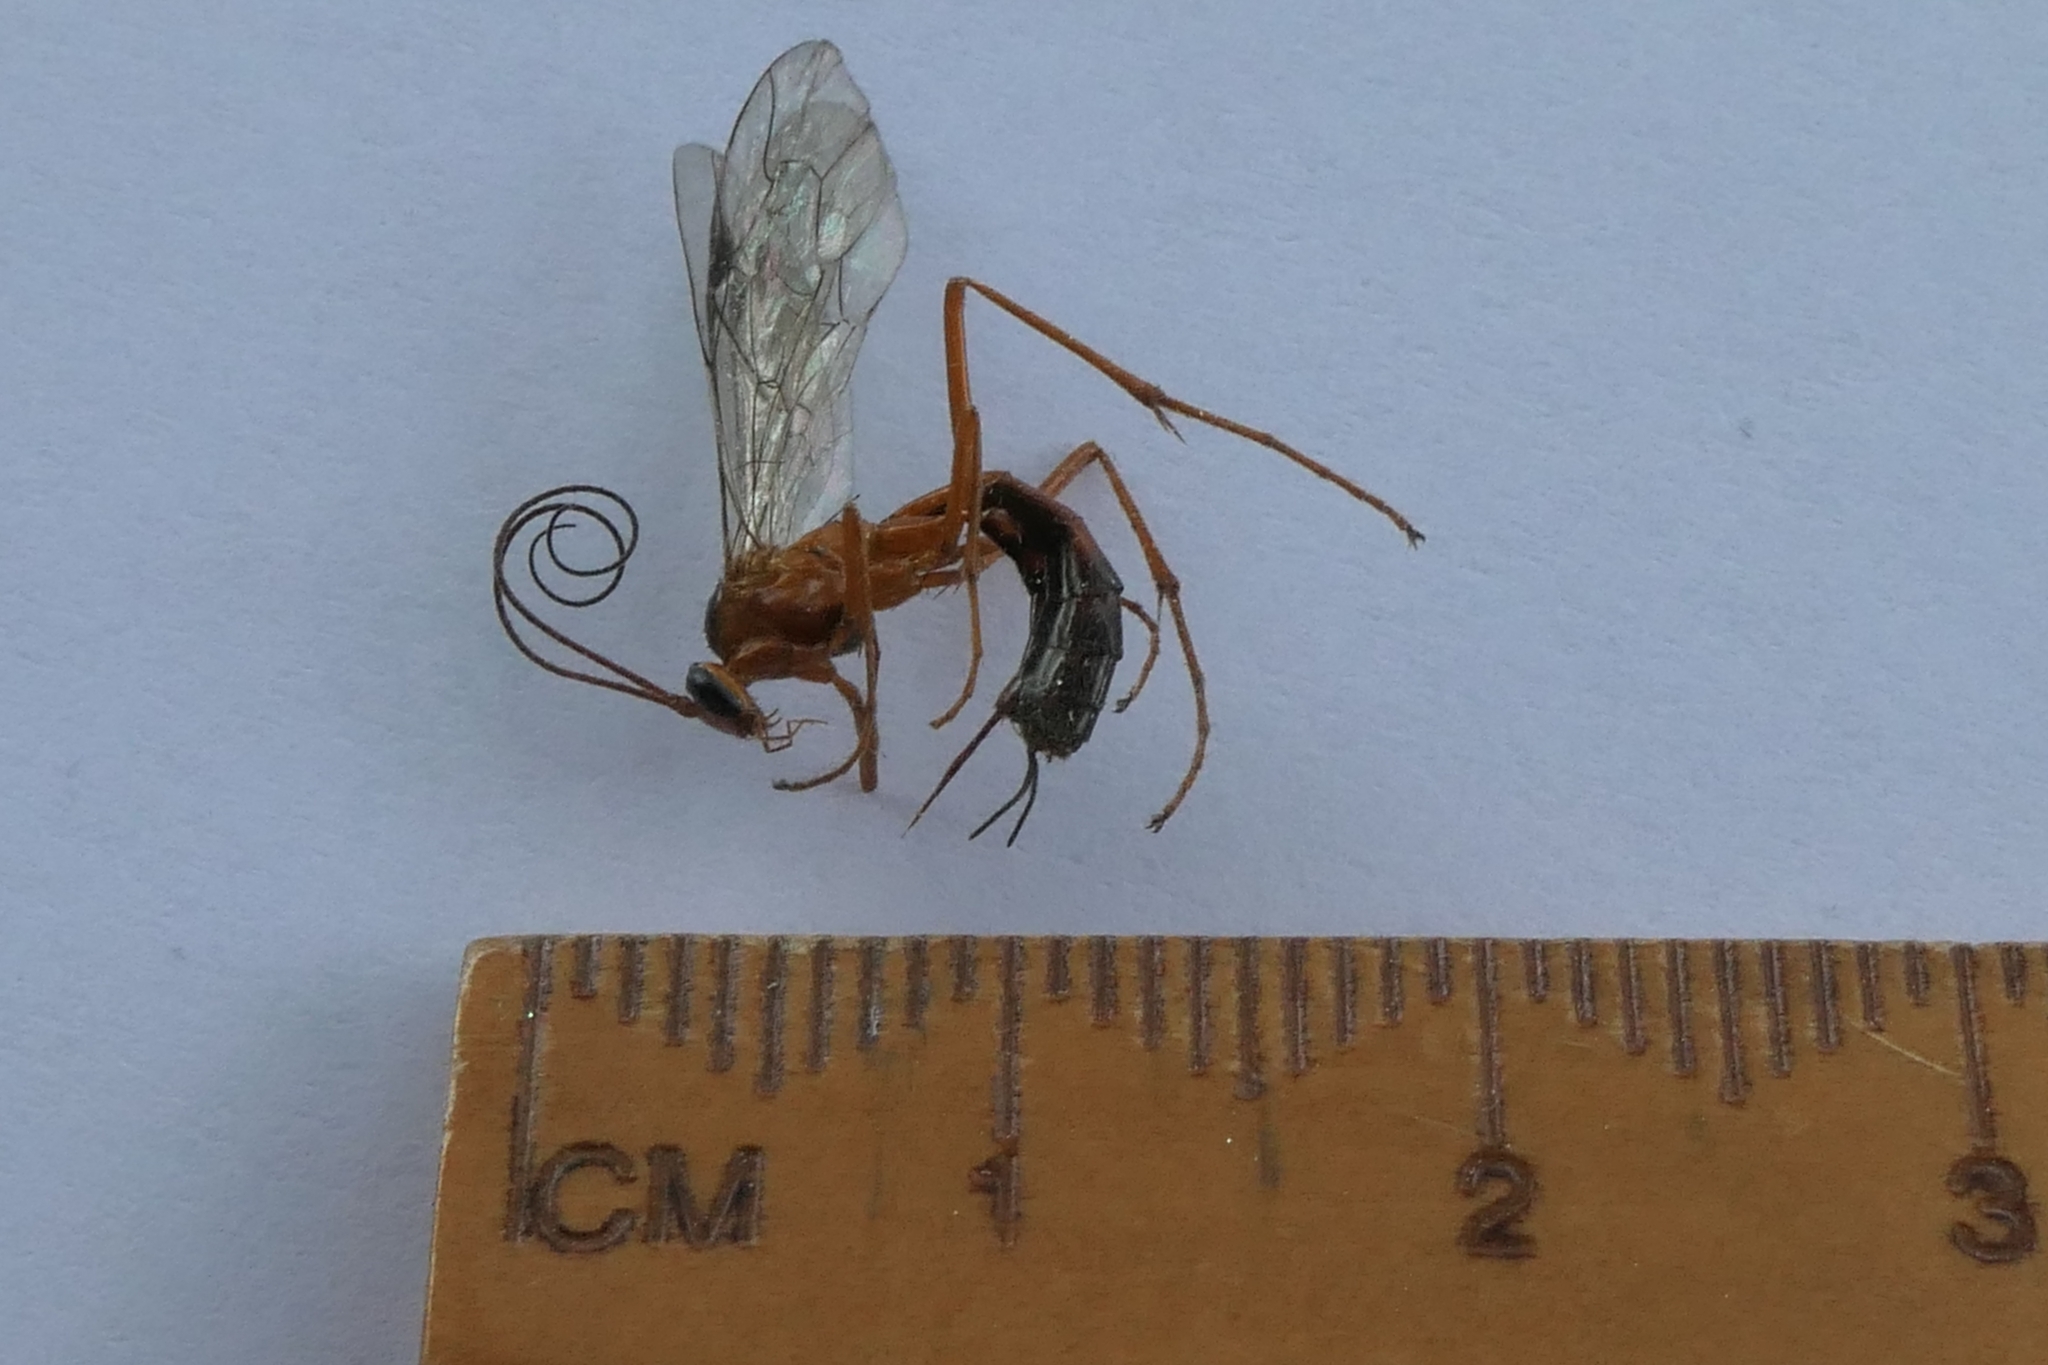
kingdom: Animalia
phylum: Arthropoda
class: Insecta
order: Hymenoptera
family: Ichneumonidae
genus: Netelia
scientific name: Netelia ephippiata
